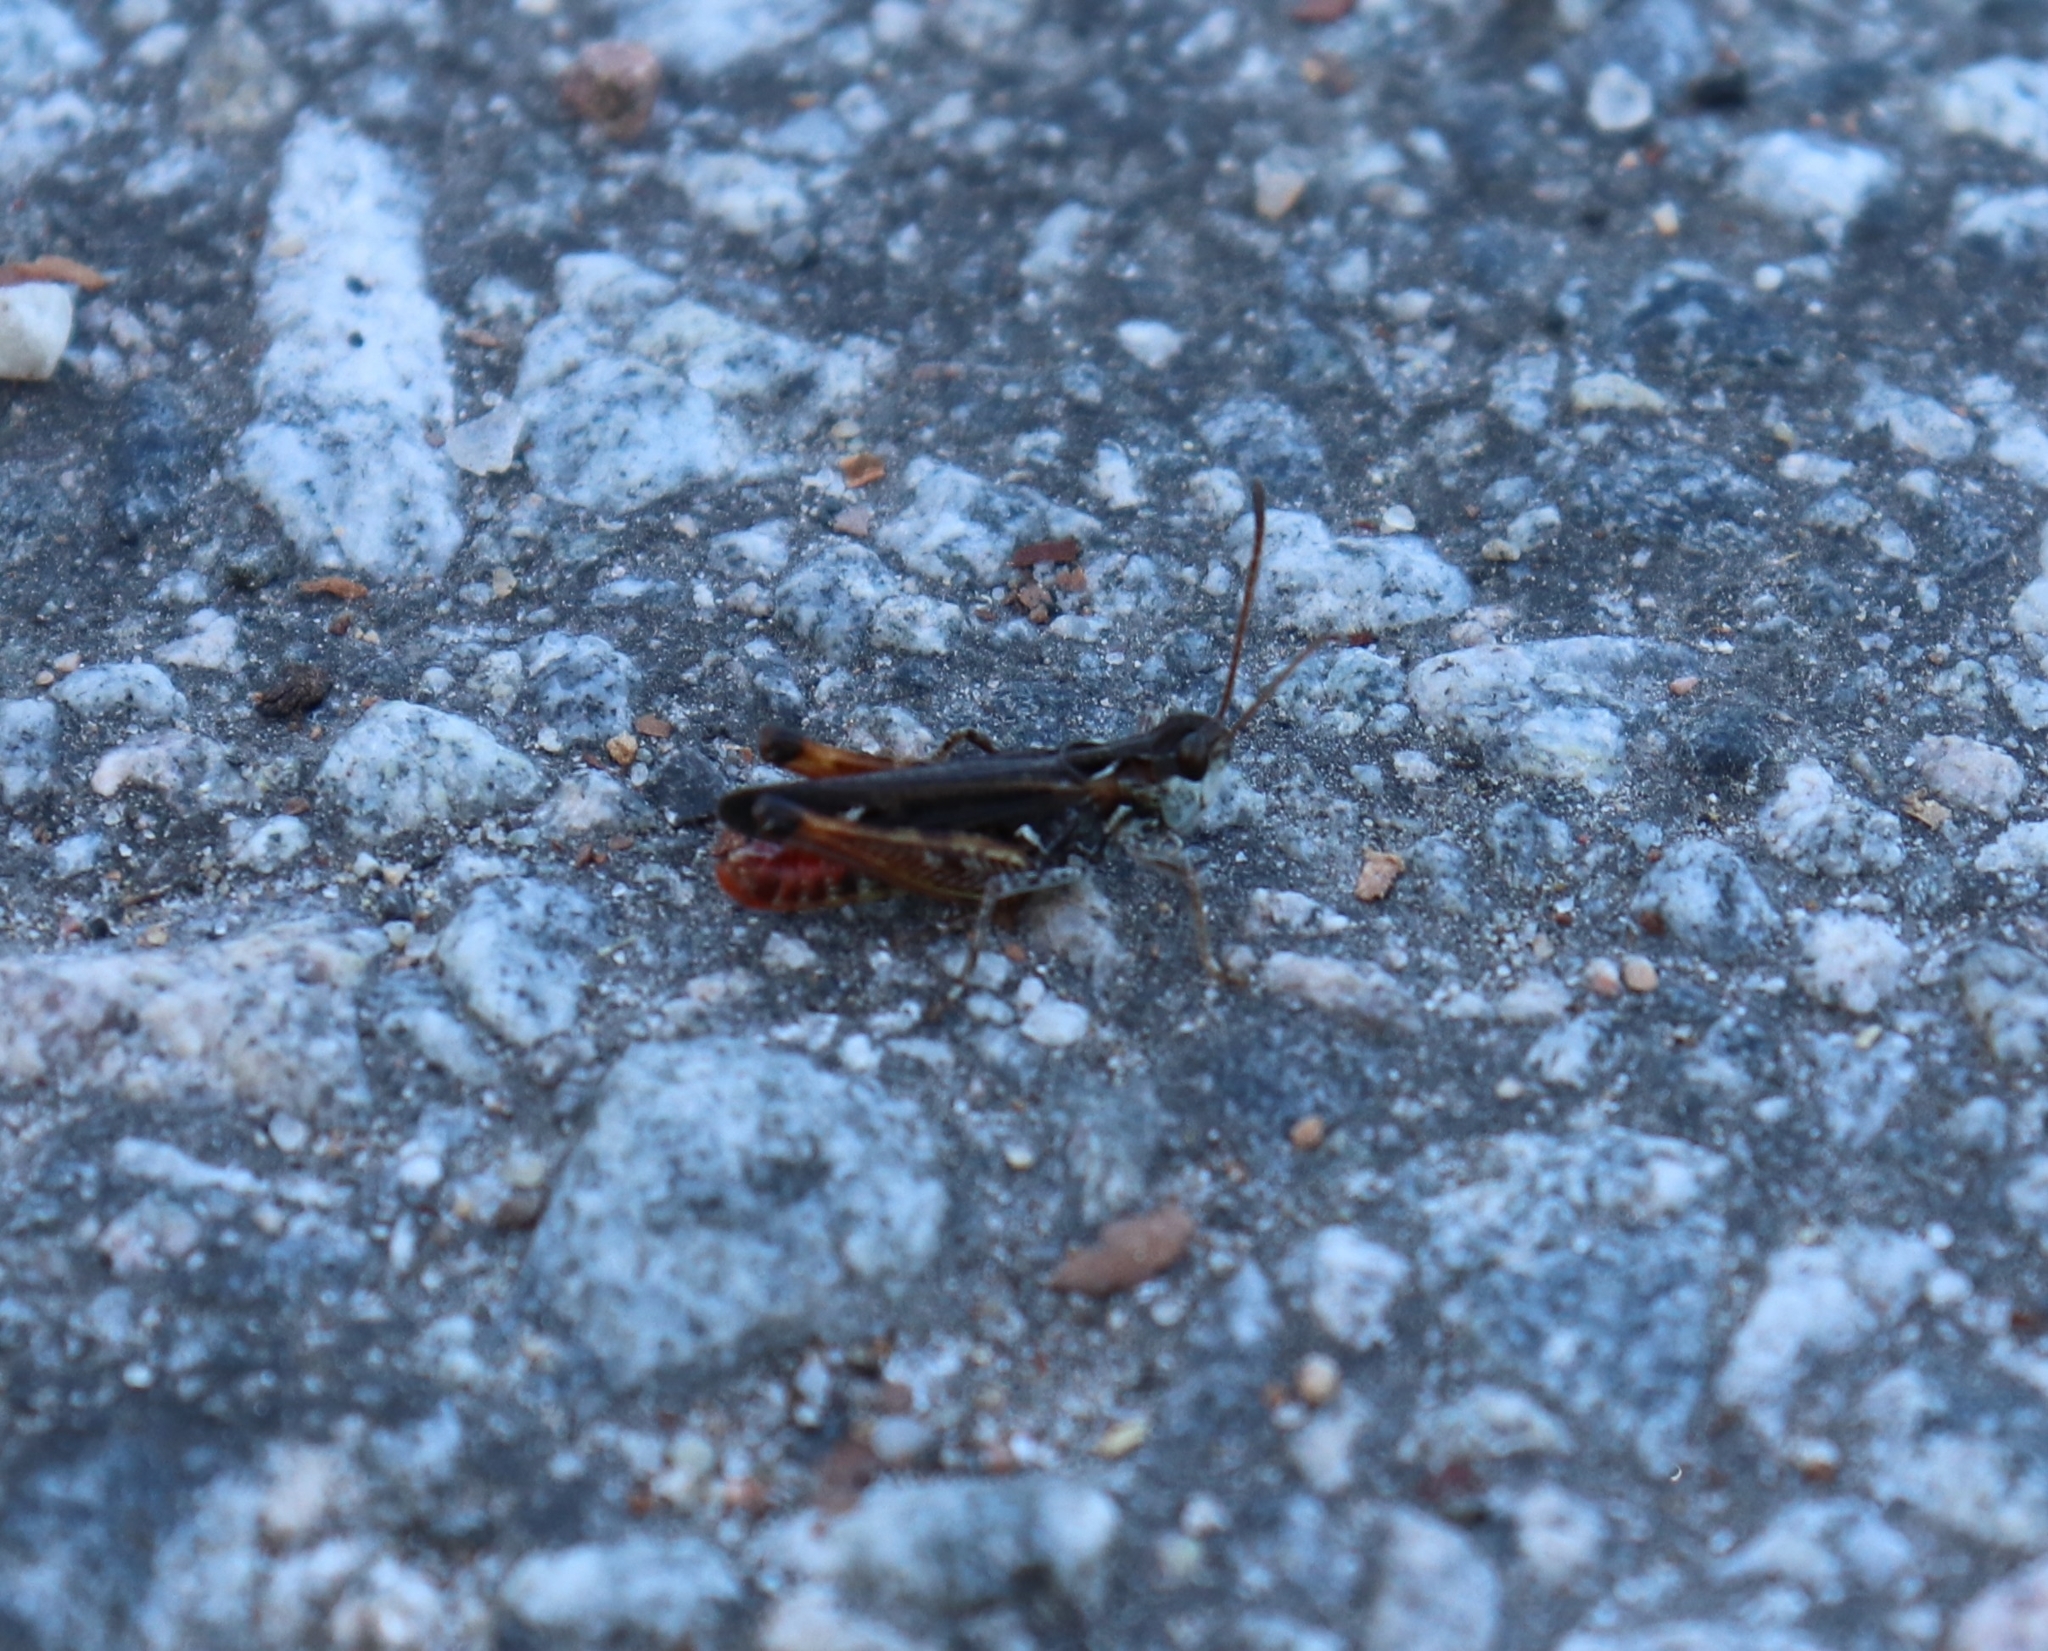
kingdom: Animalia
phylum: Arthropoda
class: Insecta
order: Orthoptera
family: Acrididae
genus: Myrmeleotettix
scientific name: Myrmeleotettix maculatus
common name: Mottled grasshopper
